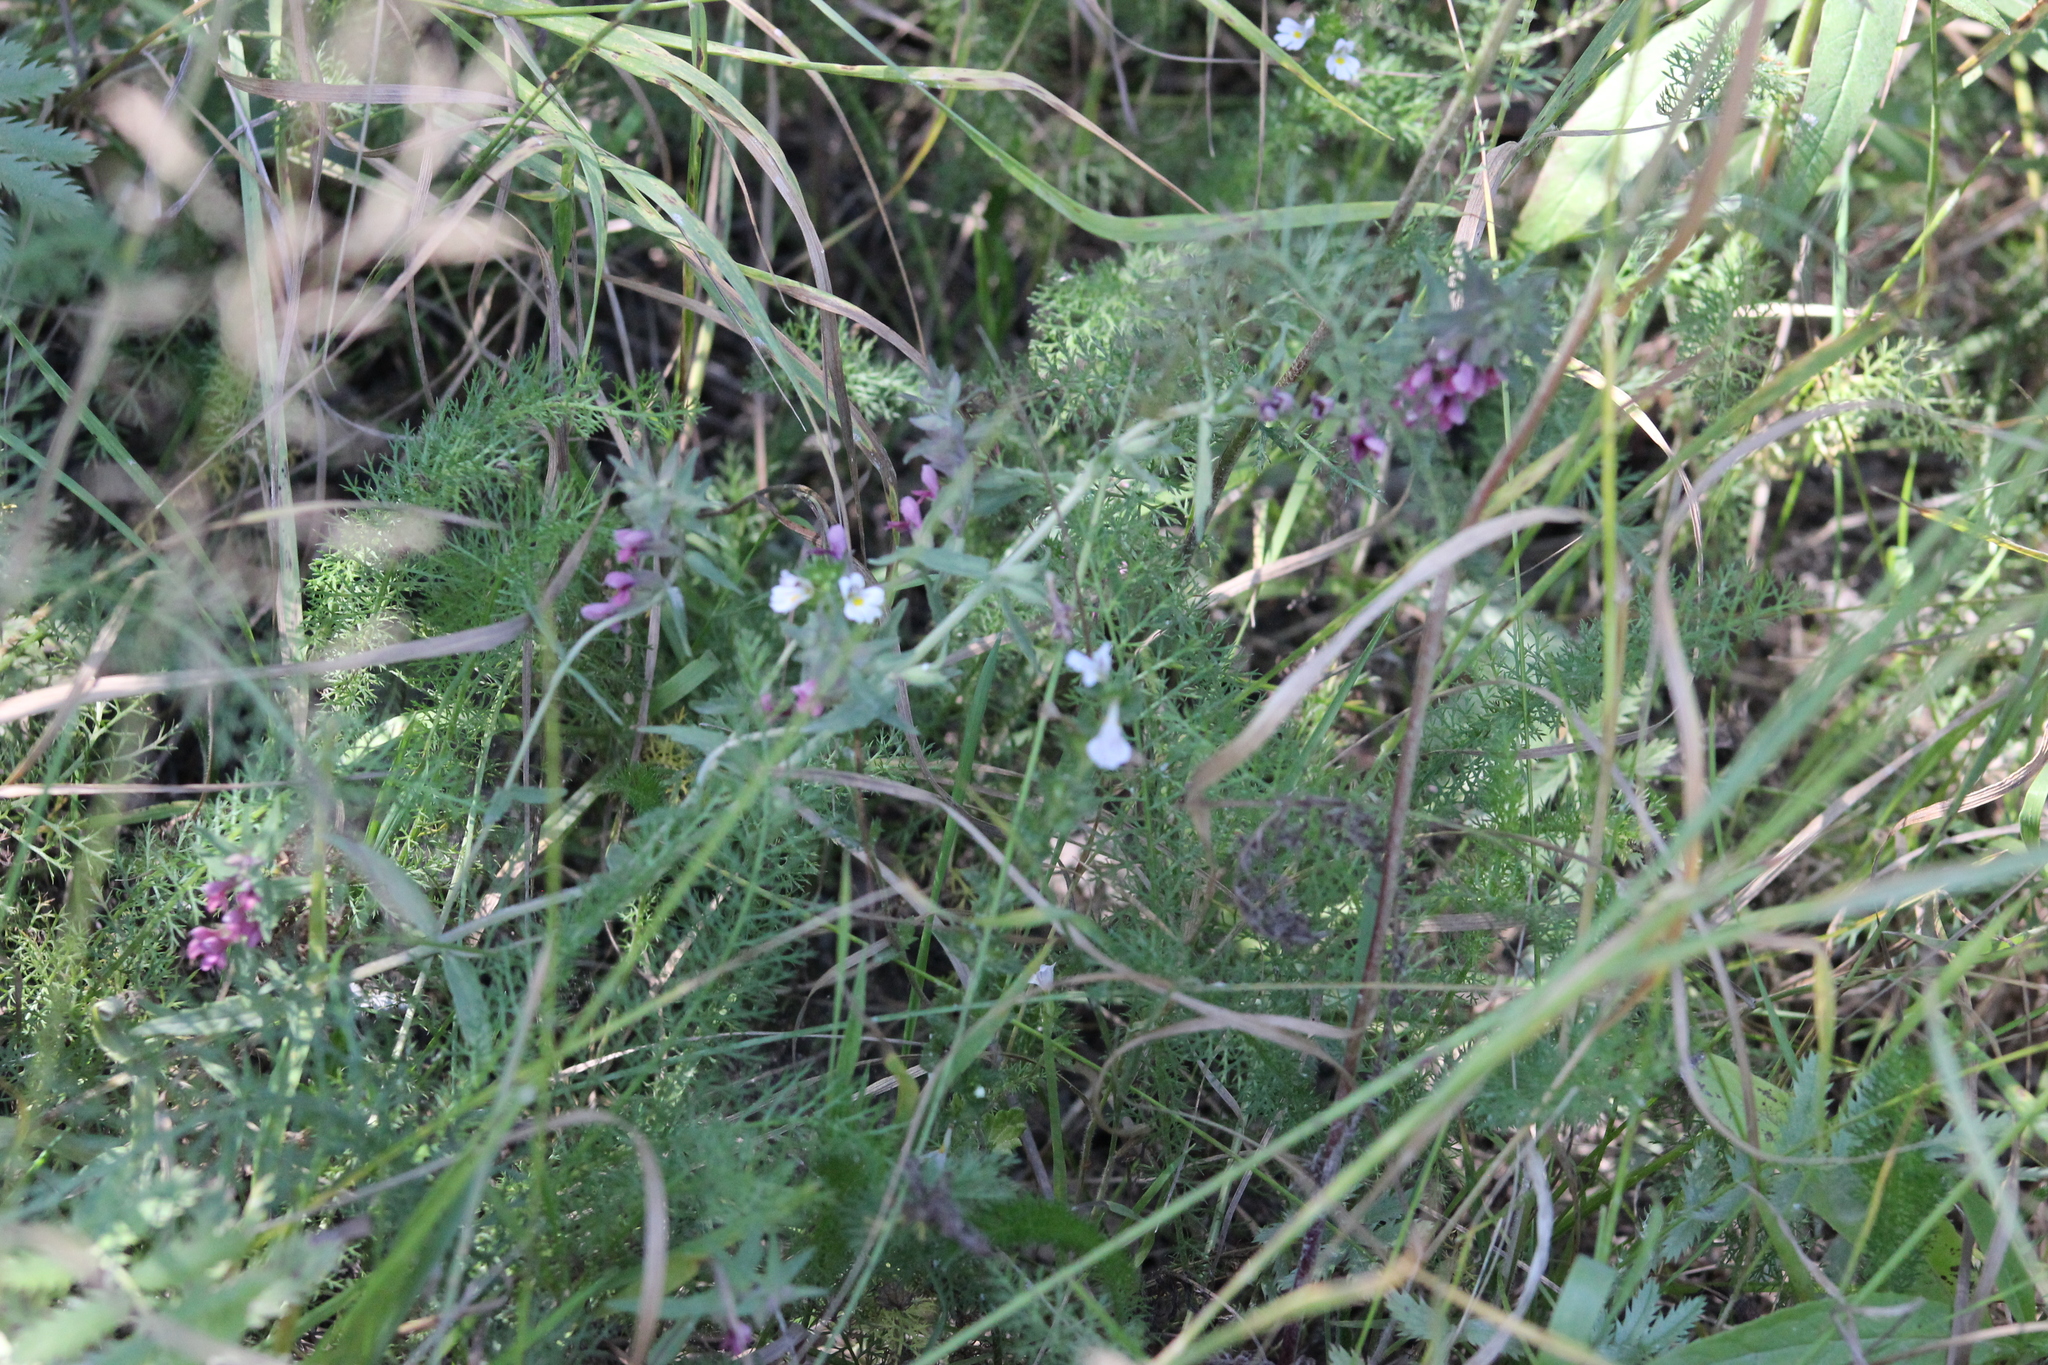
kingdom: Plantae
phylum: Tracheophyta
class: Magnoliopsida
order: Lamiales
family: Orobanchaceae
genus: Odontites
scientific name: Odontites vulgaris
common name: Broomrape
